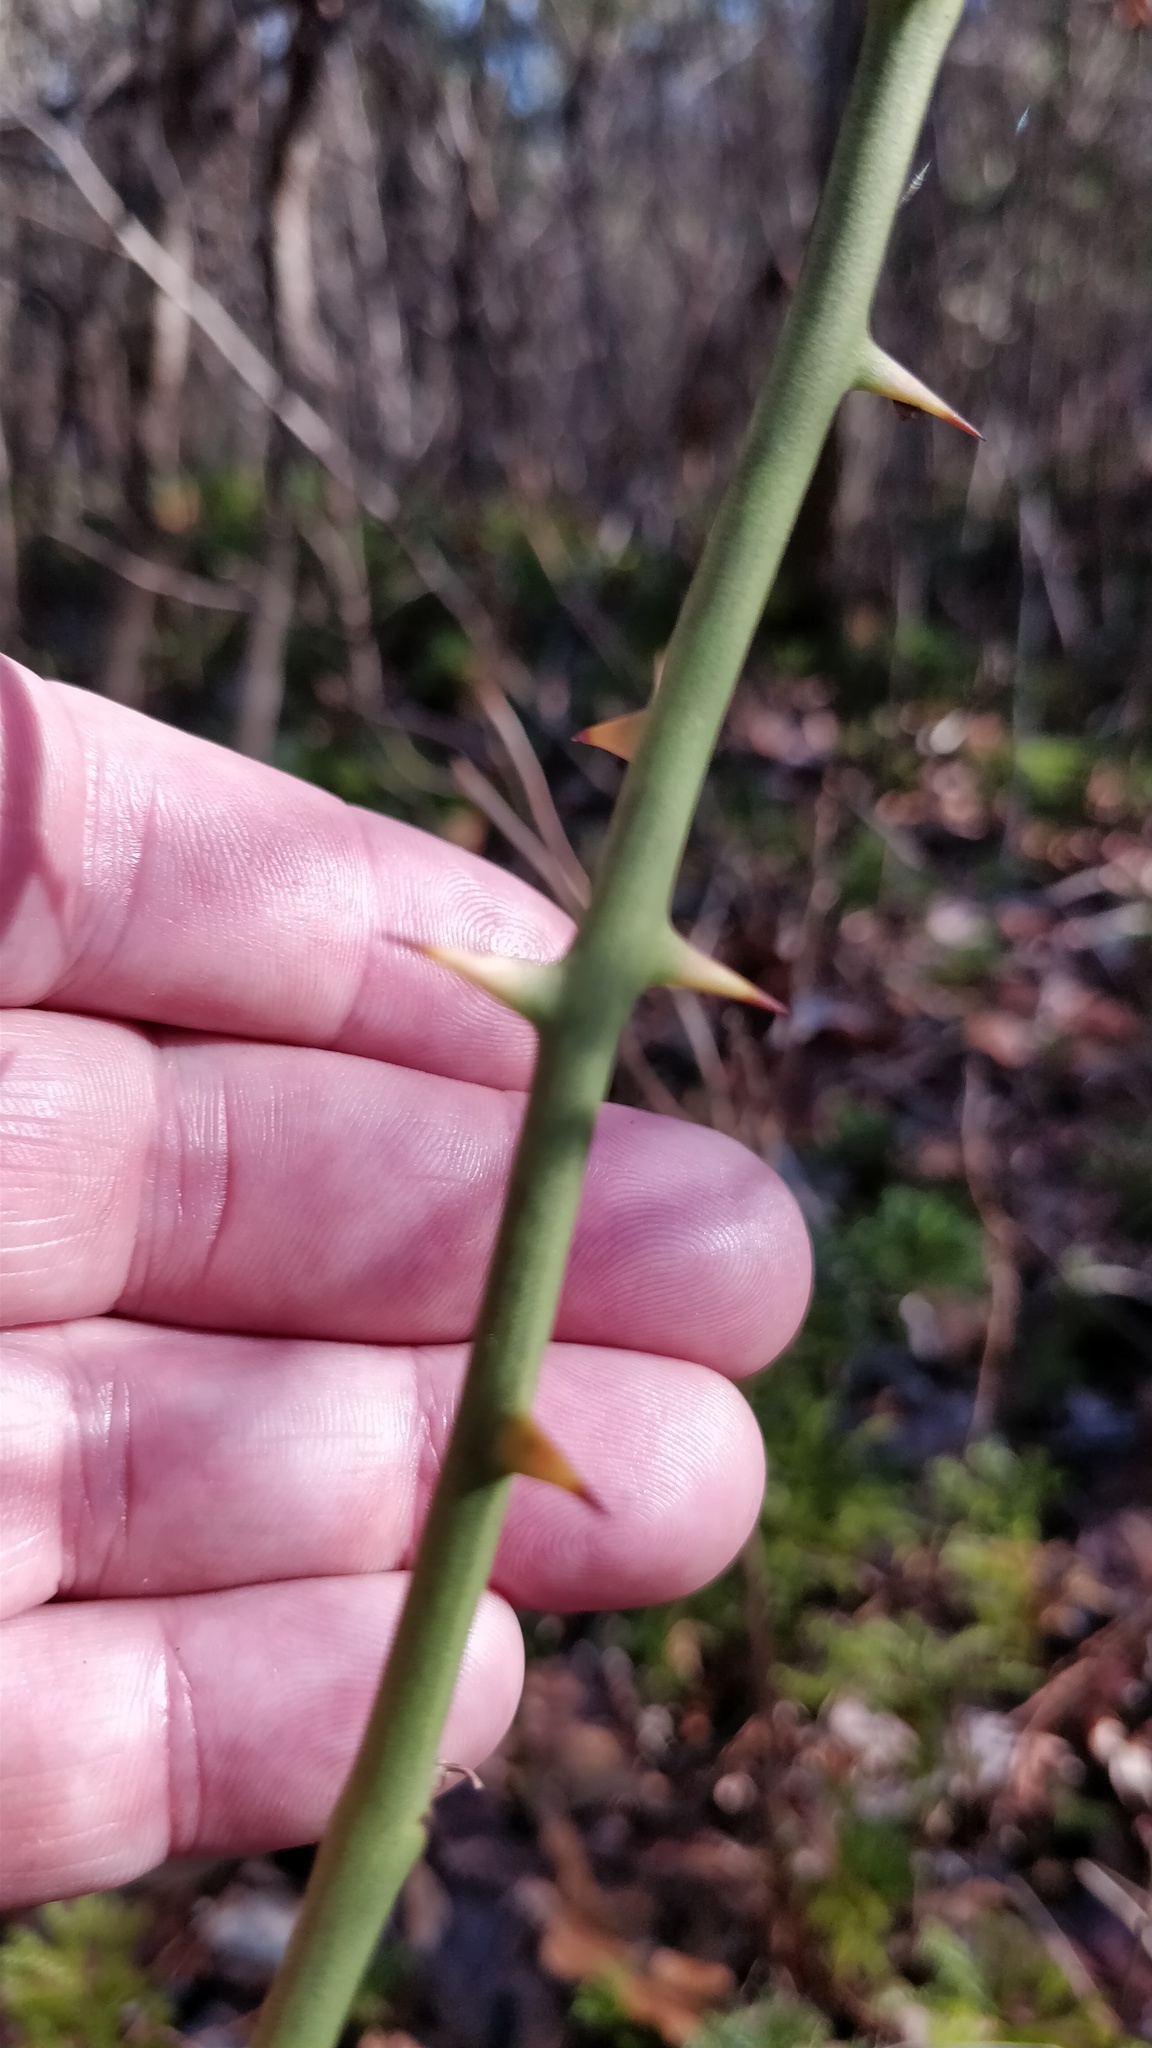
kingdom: Plantae
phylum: Tracheophyta
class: Liliopsida
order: Liliales
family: Smilacaceae
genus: Smilax
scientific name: Smilax rotundifolia
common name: Bullbriar
